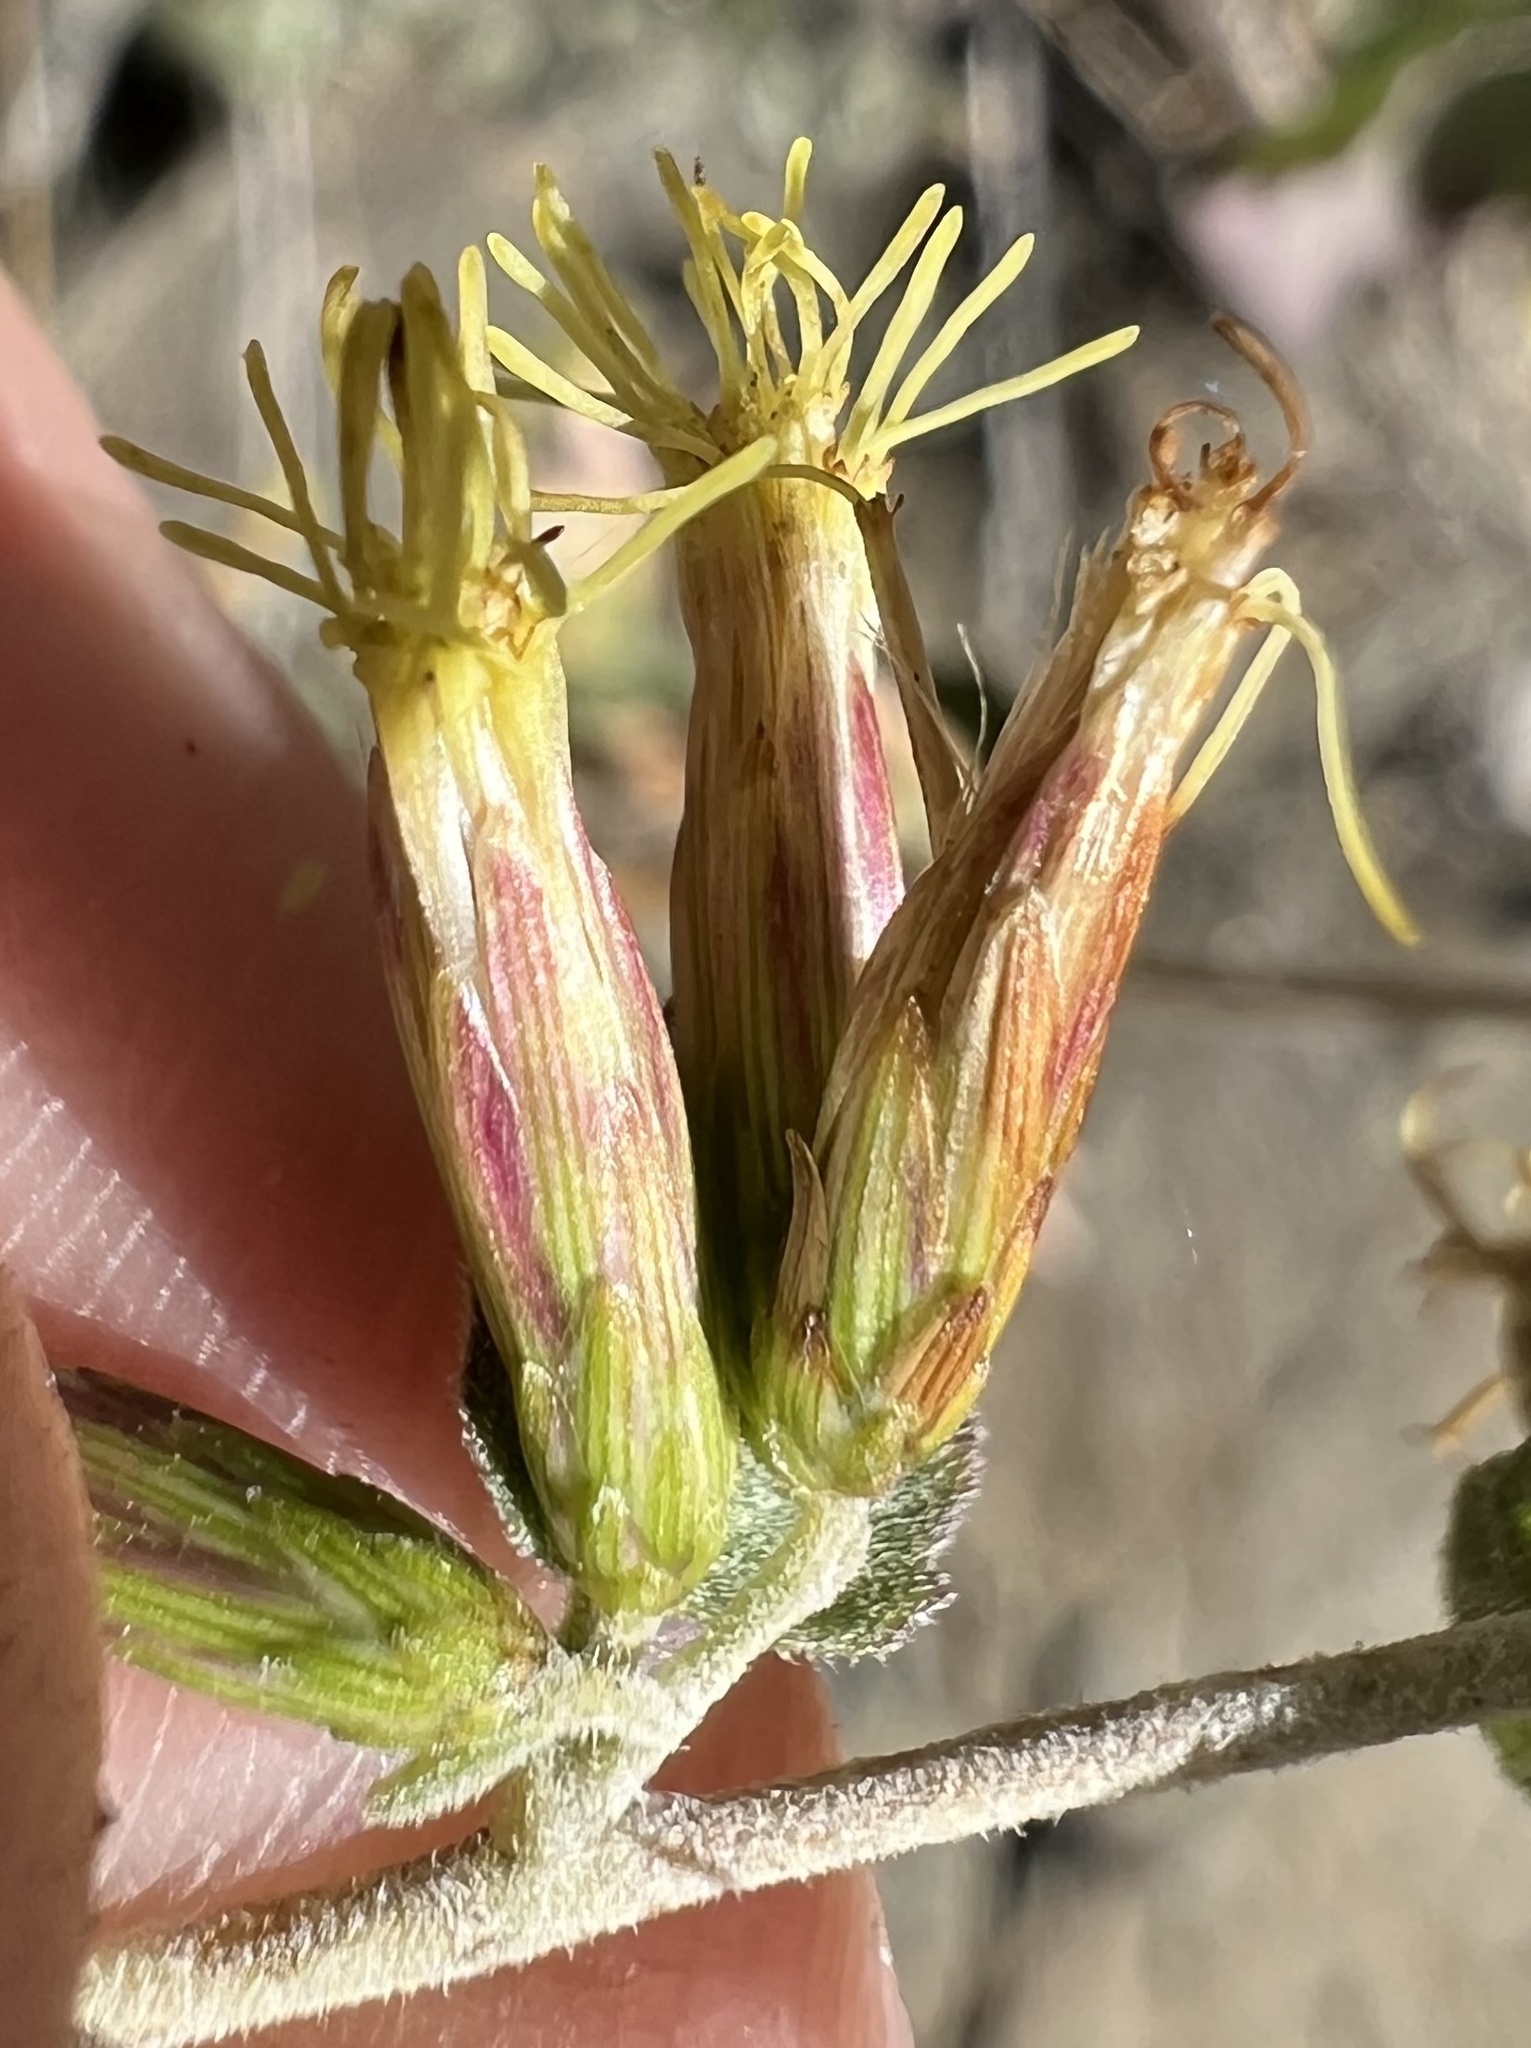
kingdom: Plantae
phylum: Tracheophyta
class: Magnoliopsida
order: Asterales
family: Asteraceae
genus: Brickellia
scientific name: Brickellia californica
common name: California brickellbush
